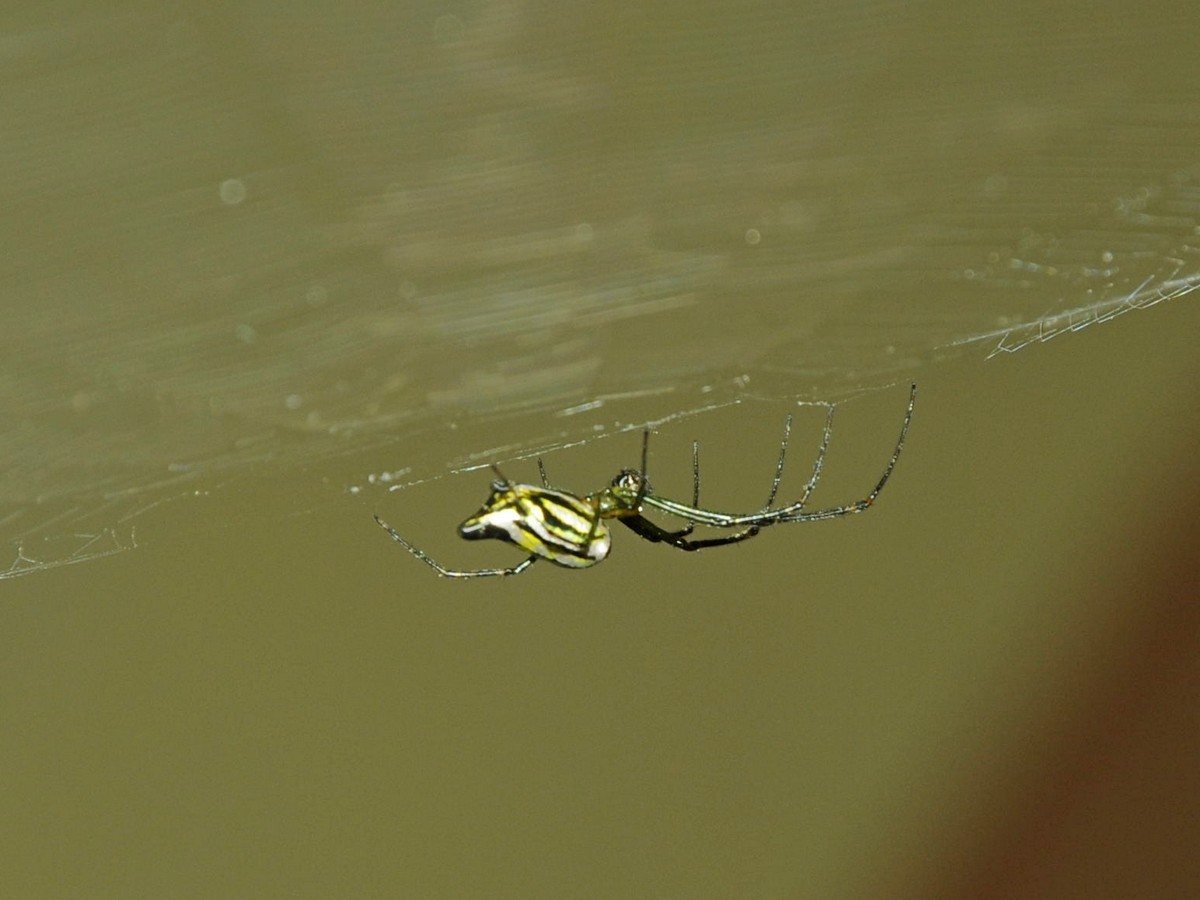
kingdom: Animalia
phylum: Arthropoda
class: Arachnida
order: Araneae
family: Tetragnathidae
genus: Leucauge
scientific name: Leucauge decorata
